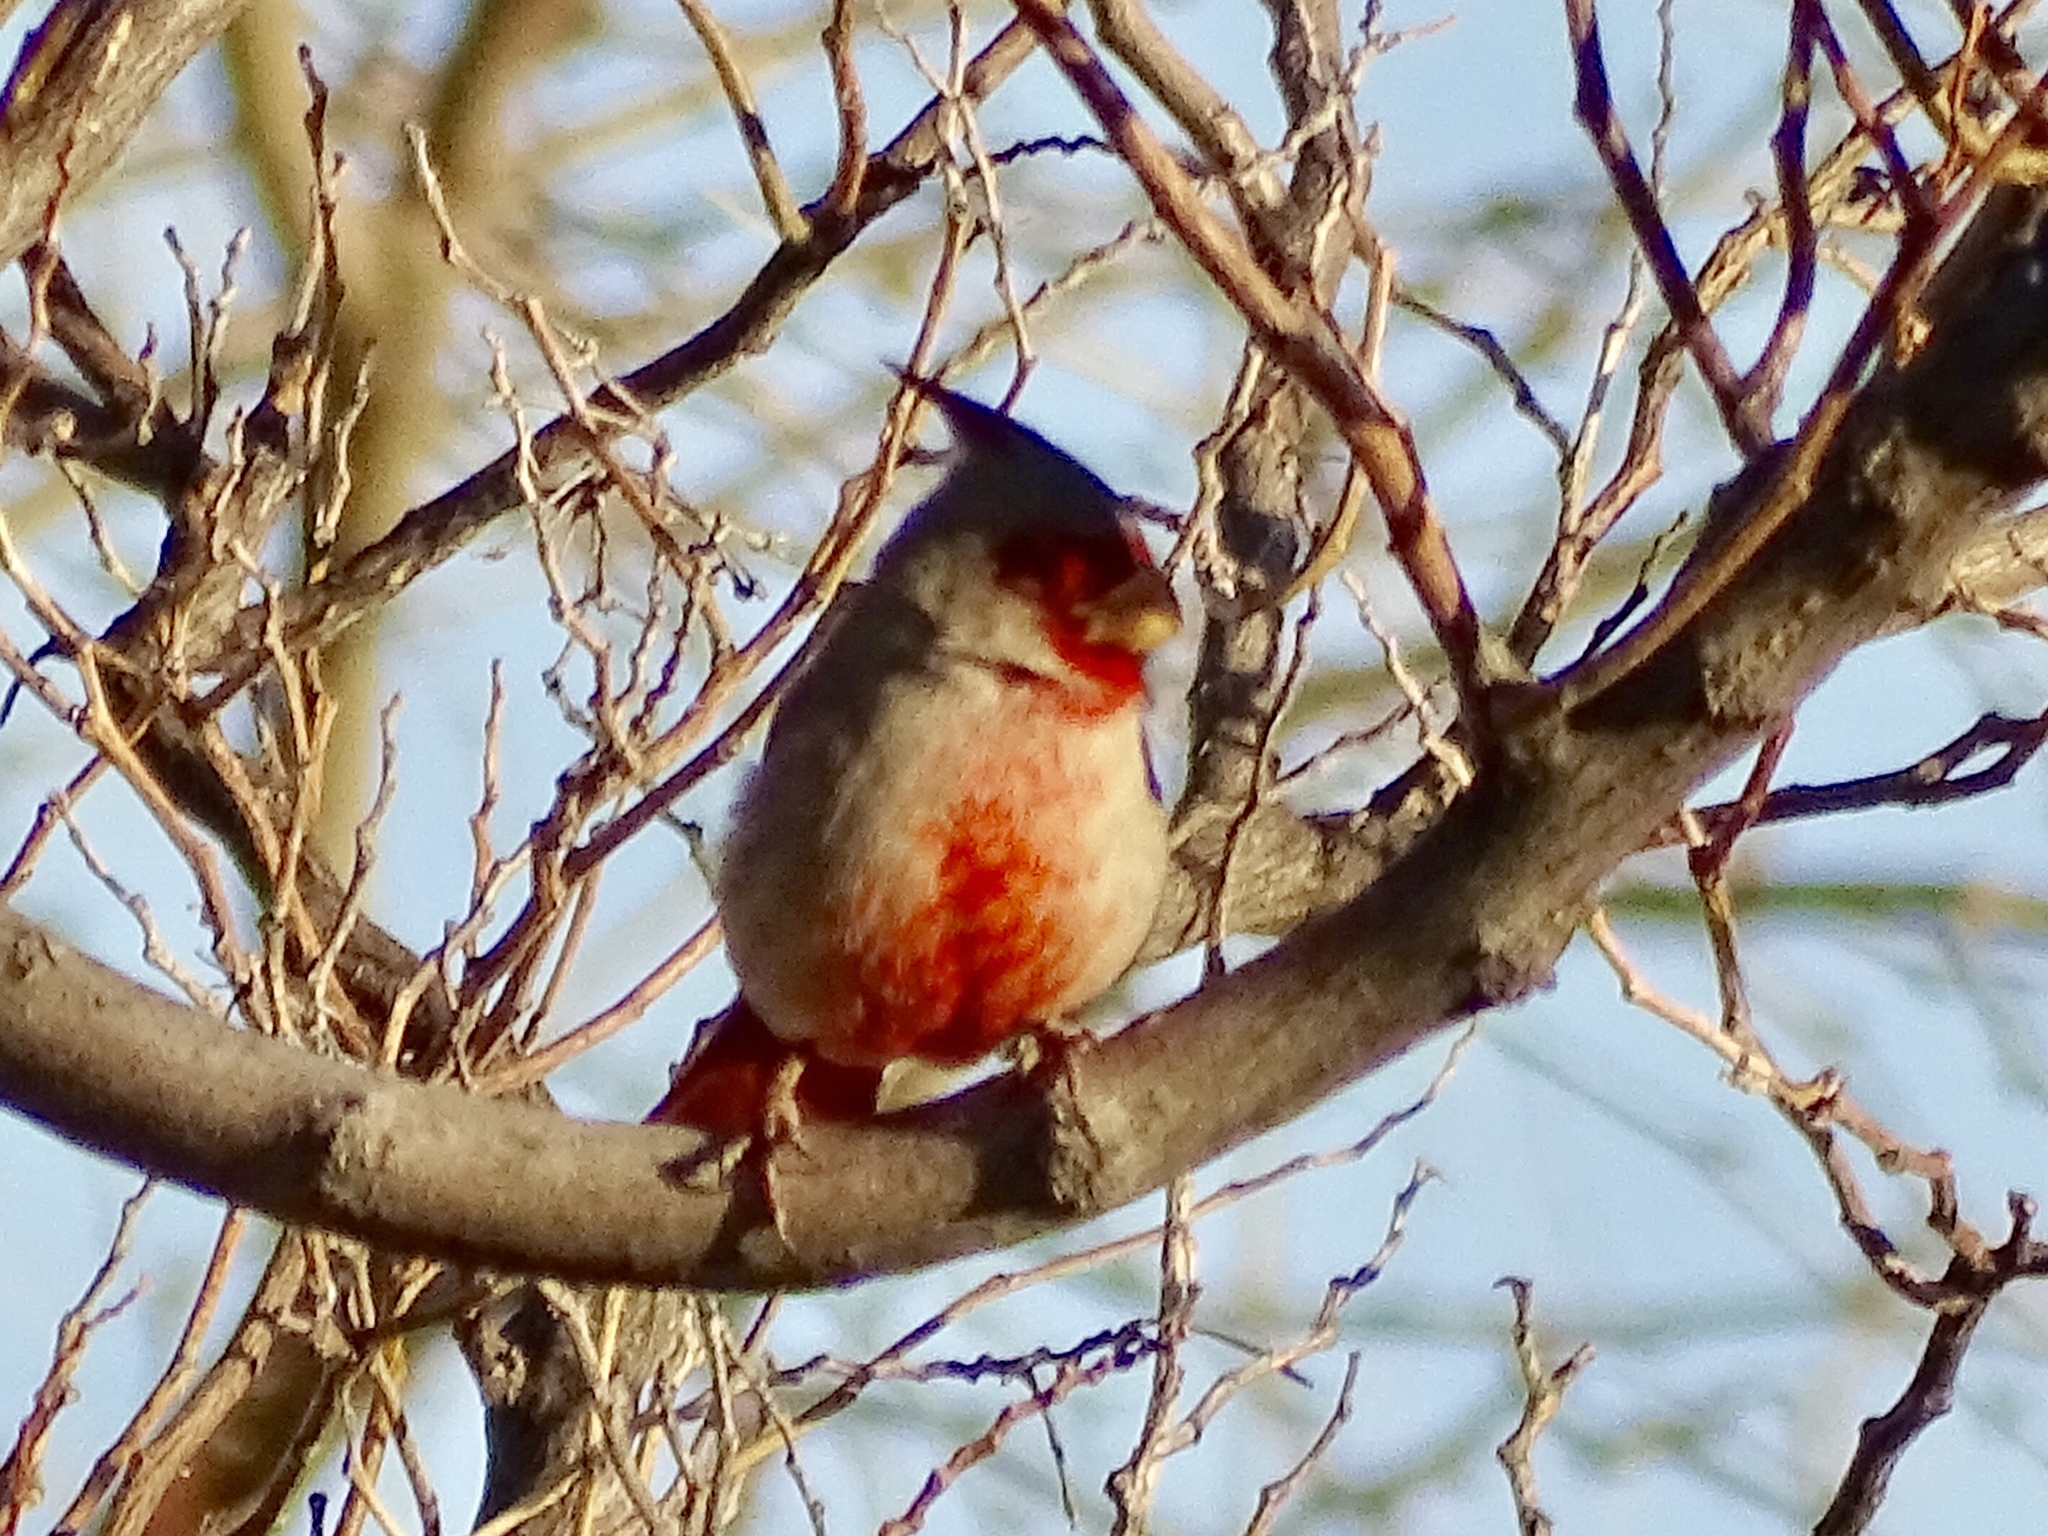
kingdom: Animalia
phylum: Chordata
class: Aves
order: Passeriformes
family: Cardinalidae
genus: Cardinalis
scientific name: Cardinalis sinuatus
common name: Pyrrhuloxia
